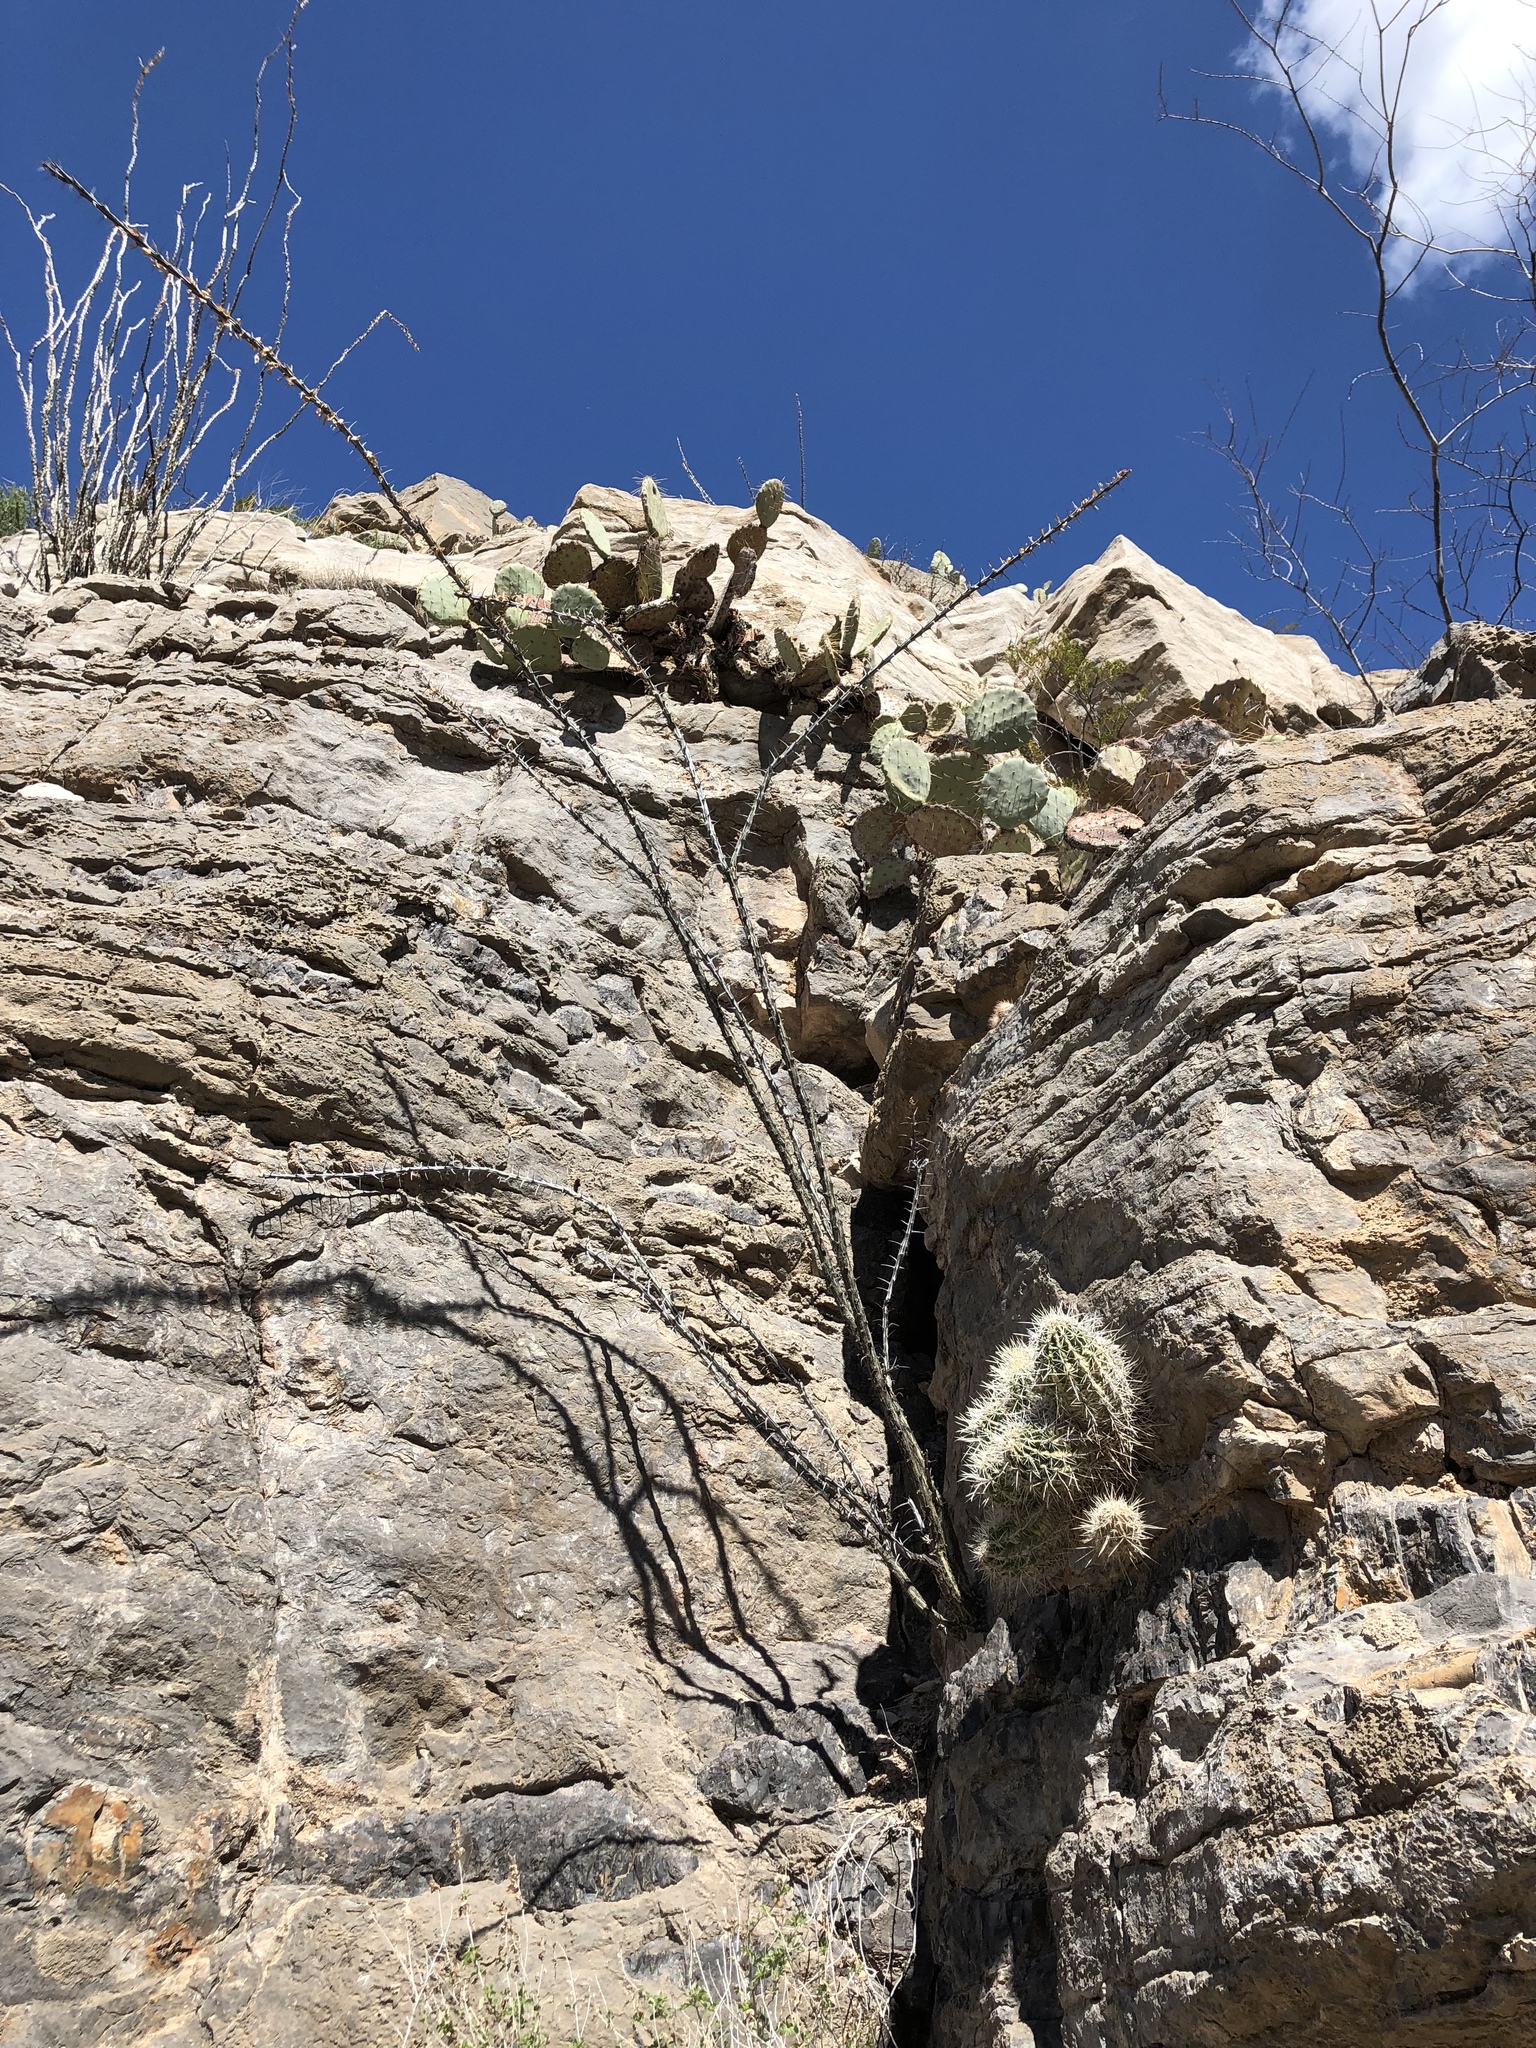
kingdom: Plantae
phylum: Tracheophyta
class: Magnoliopsida
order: Ericales
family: Fouquieriaceae
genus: Fouquieria
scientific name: Fouquieria splendens
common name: Vine-cactus
